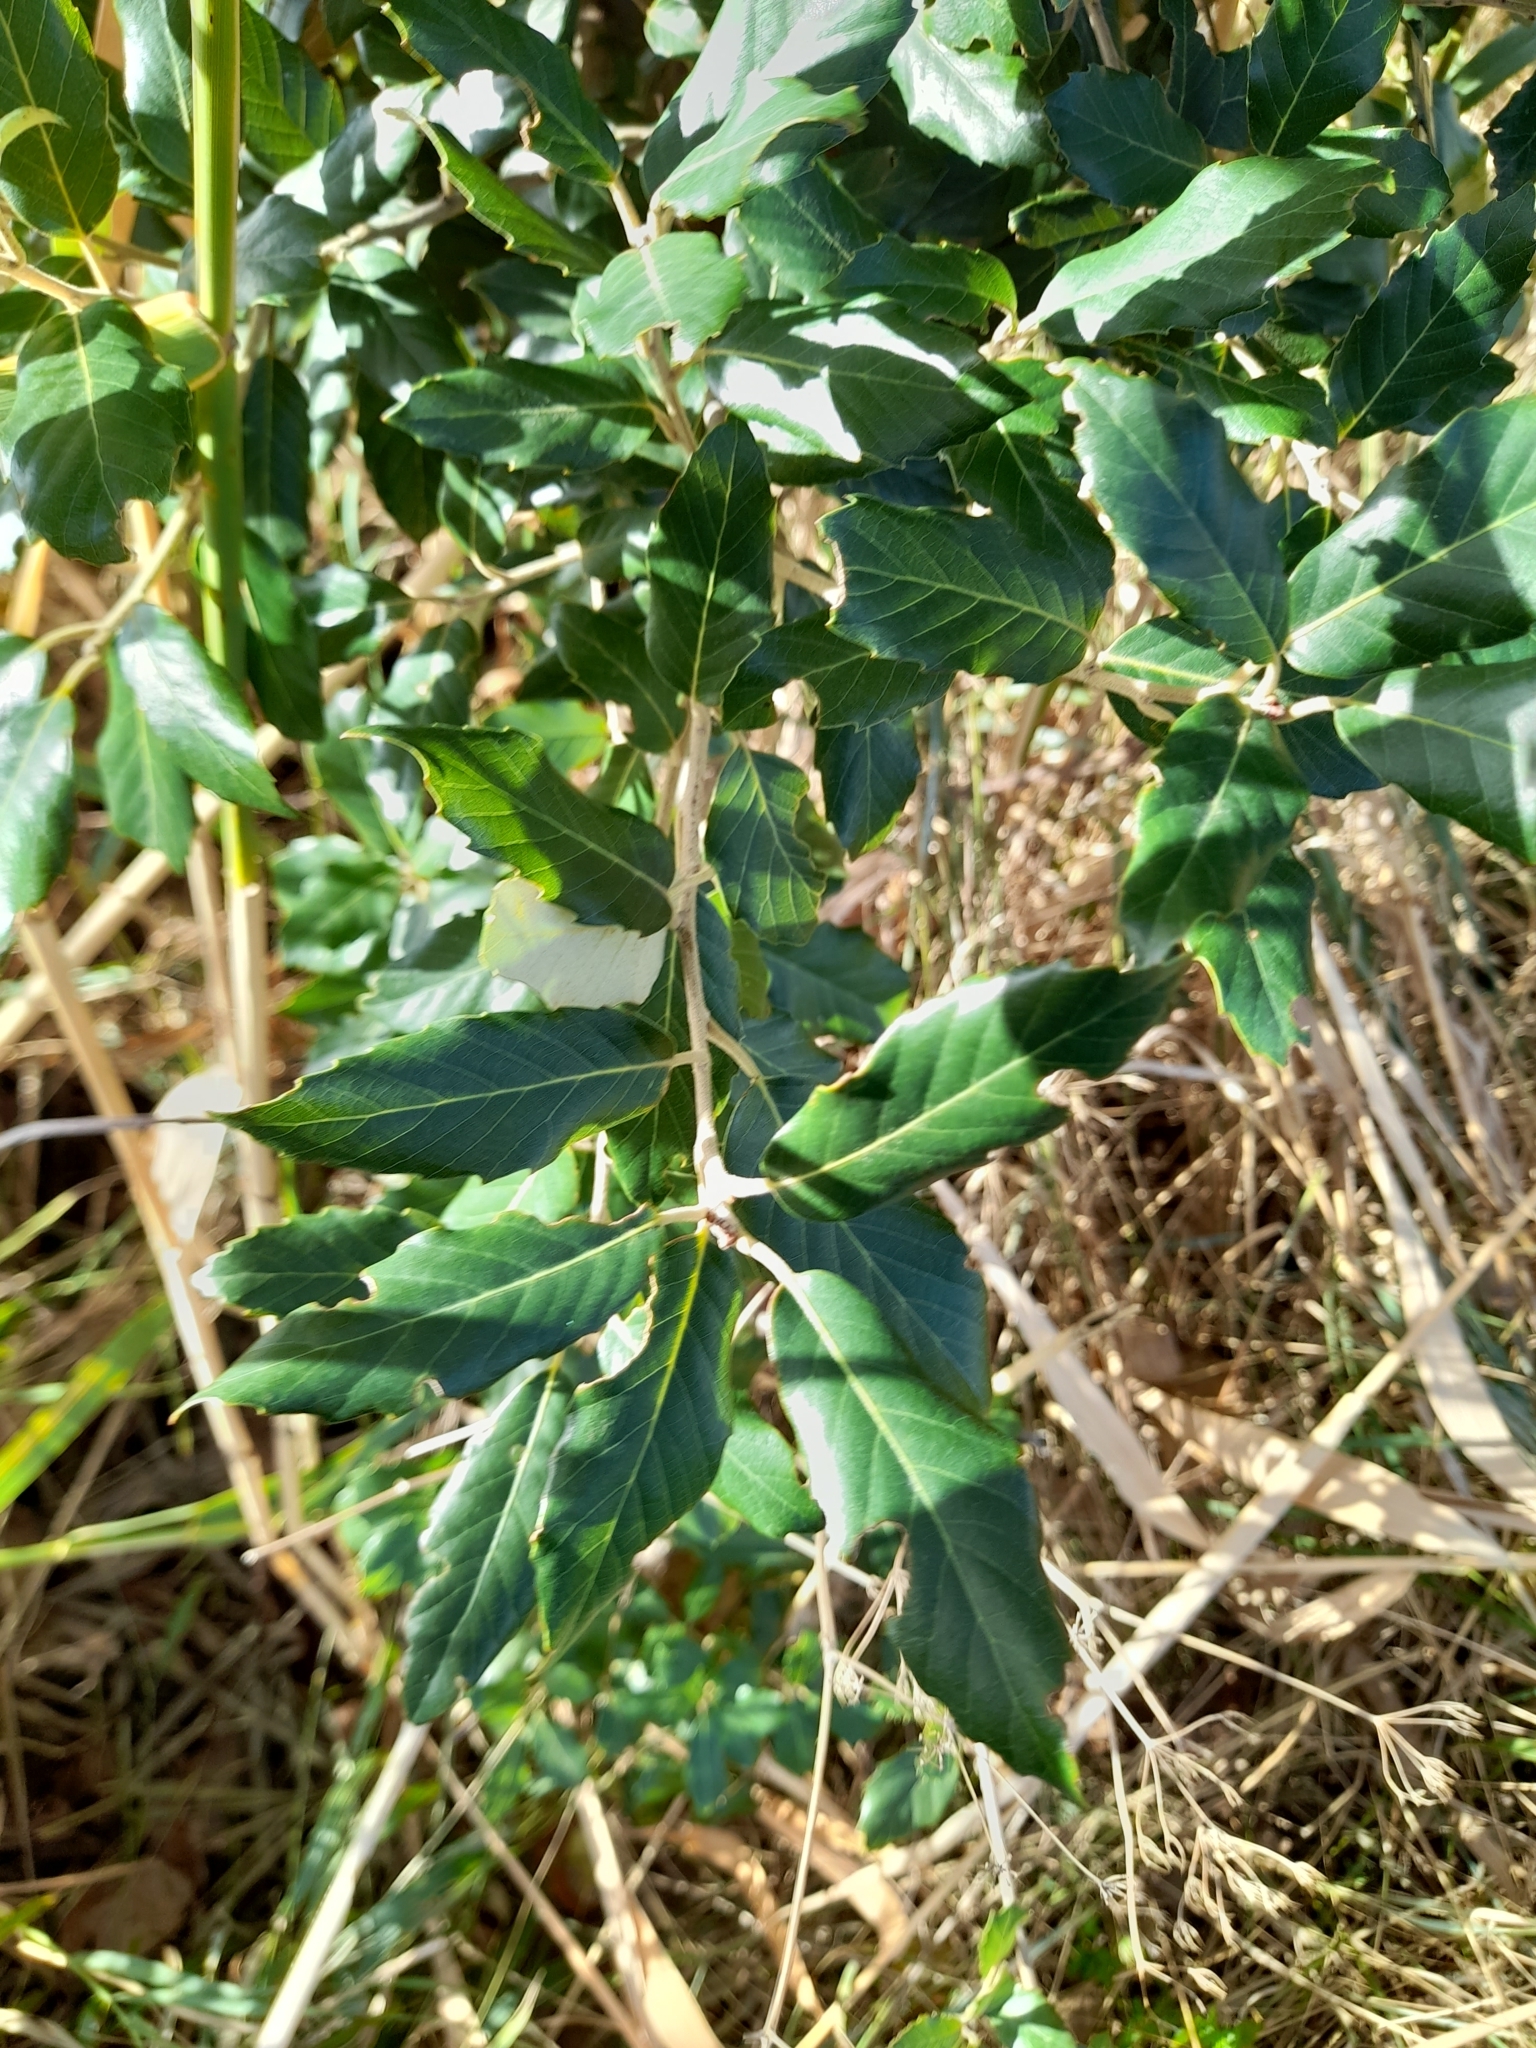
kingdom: Plantae
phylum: Tracheophyta
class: Magnoliopsida
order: Fagales
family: Fagaceae
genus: Quercus
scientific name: Quercus ilex
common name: Evergreen oak
